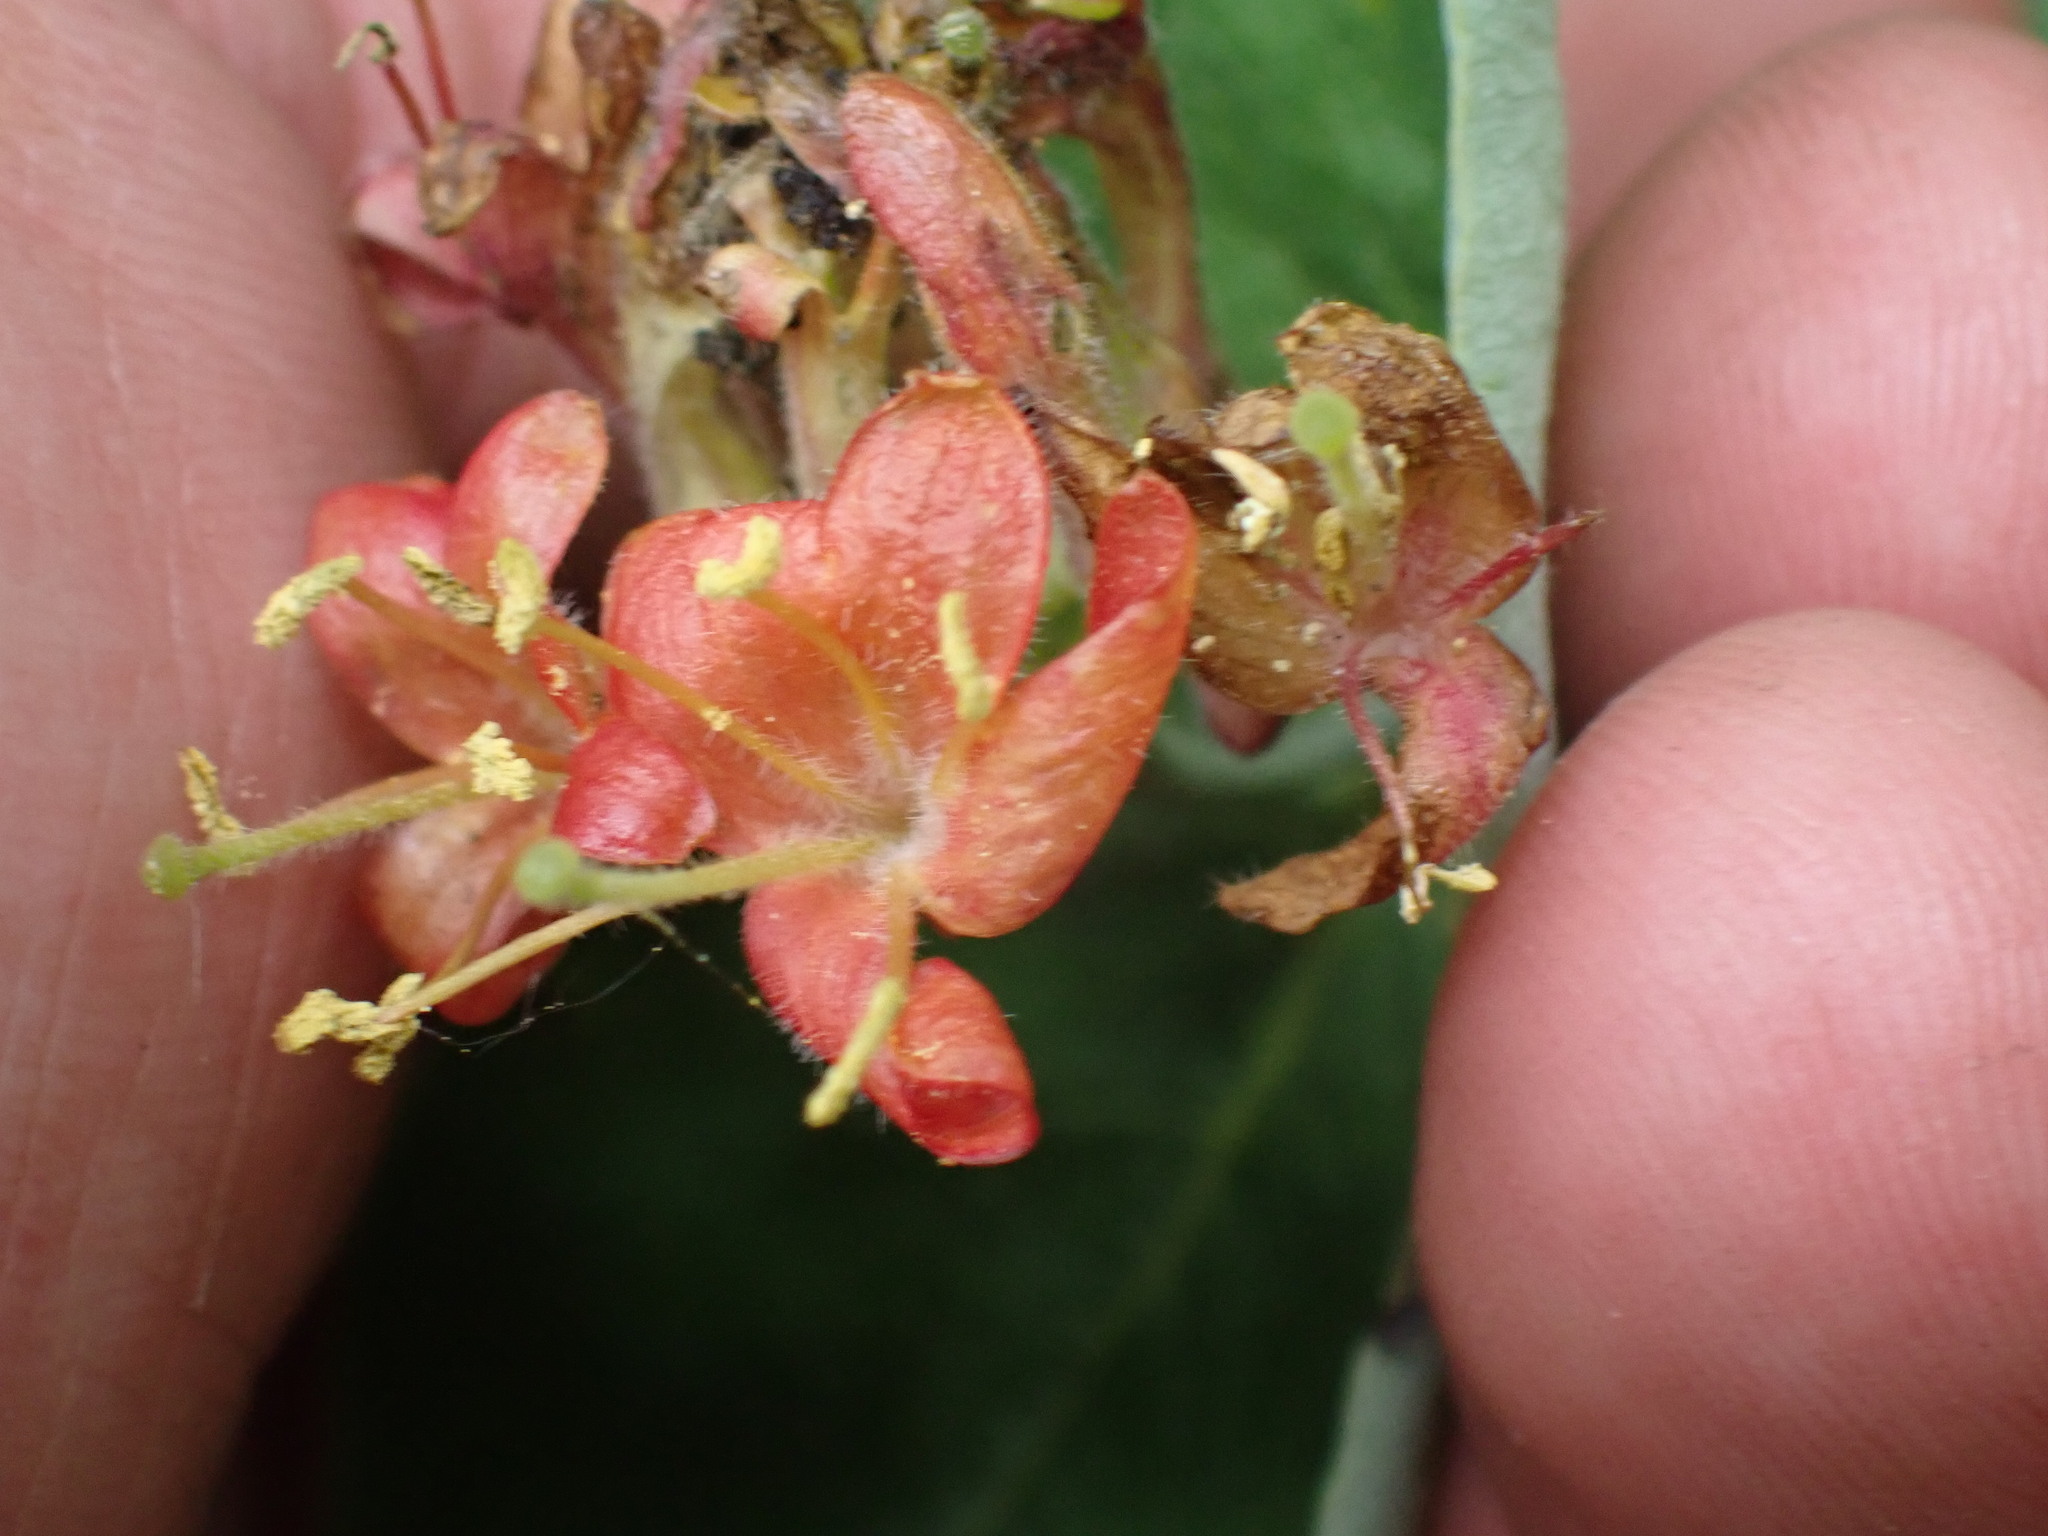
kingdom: Plantae
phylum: Tracheophyta
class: Magnoliopsida
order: Dipsacales
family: Caprifoliaceae
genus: Lonicera
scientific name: Lonicera dioica
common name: Limber honeysuckle
